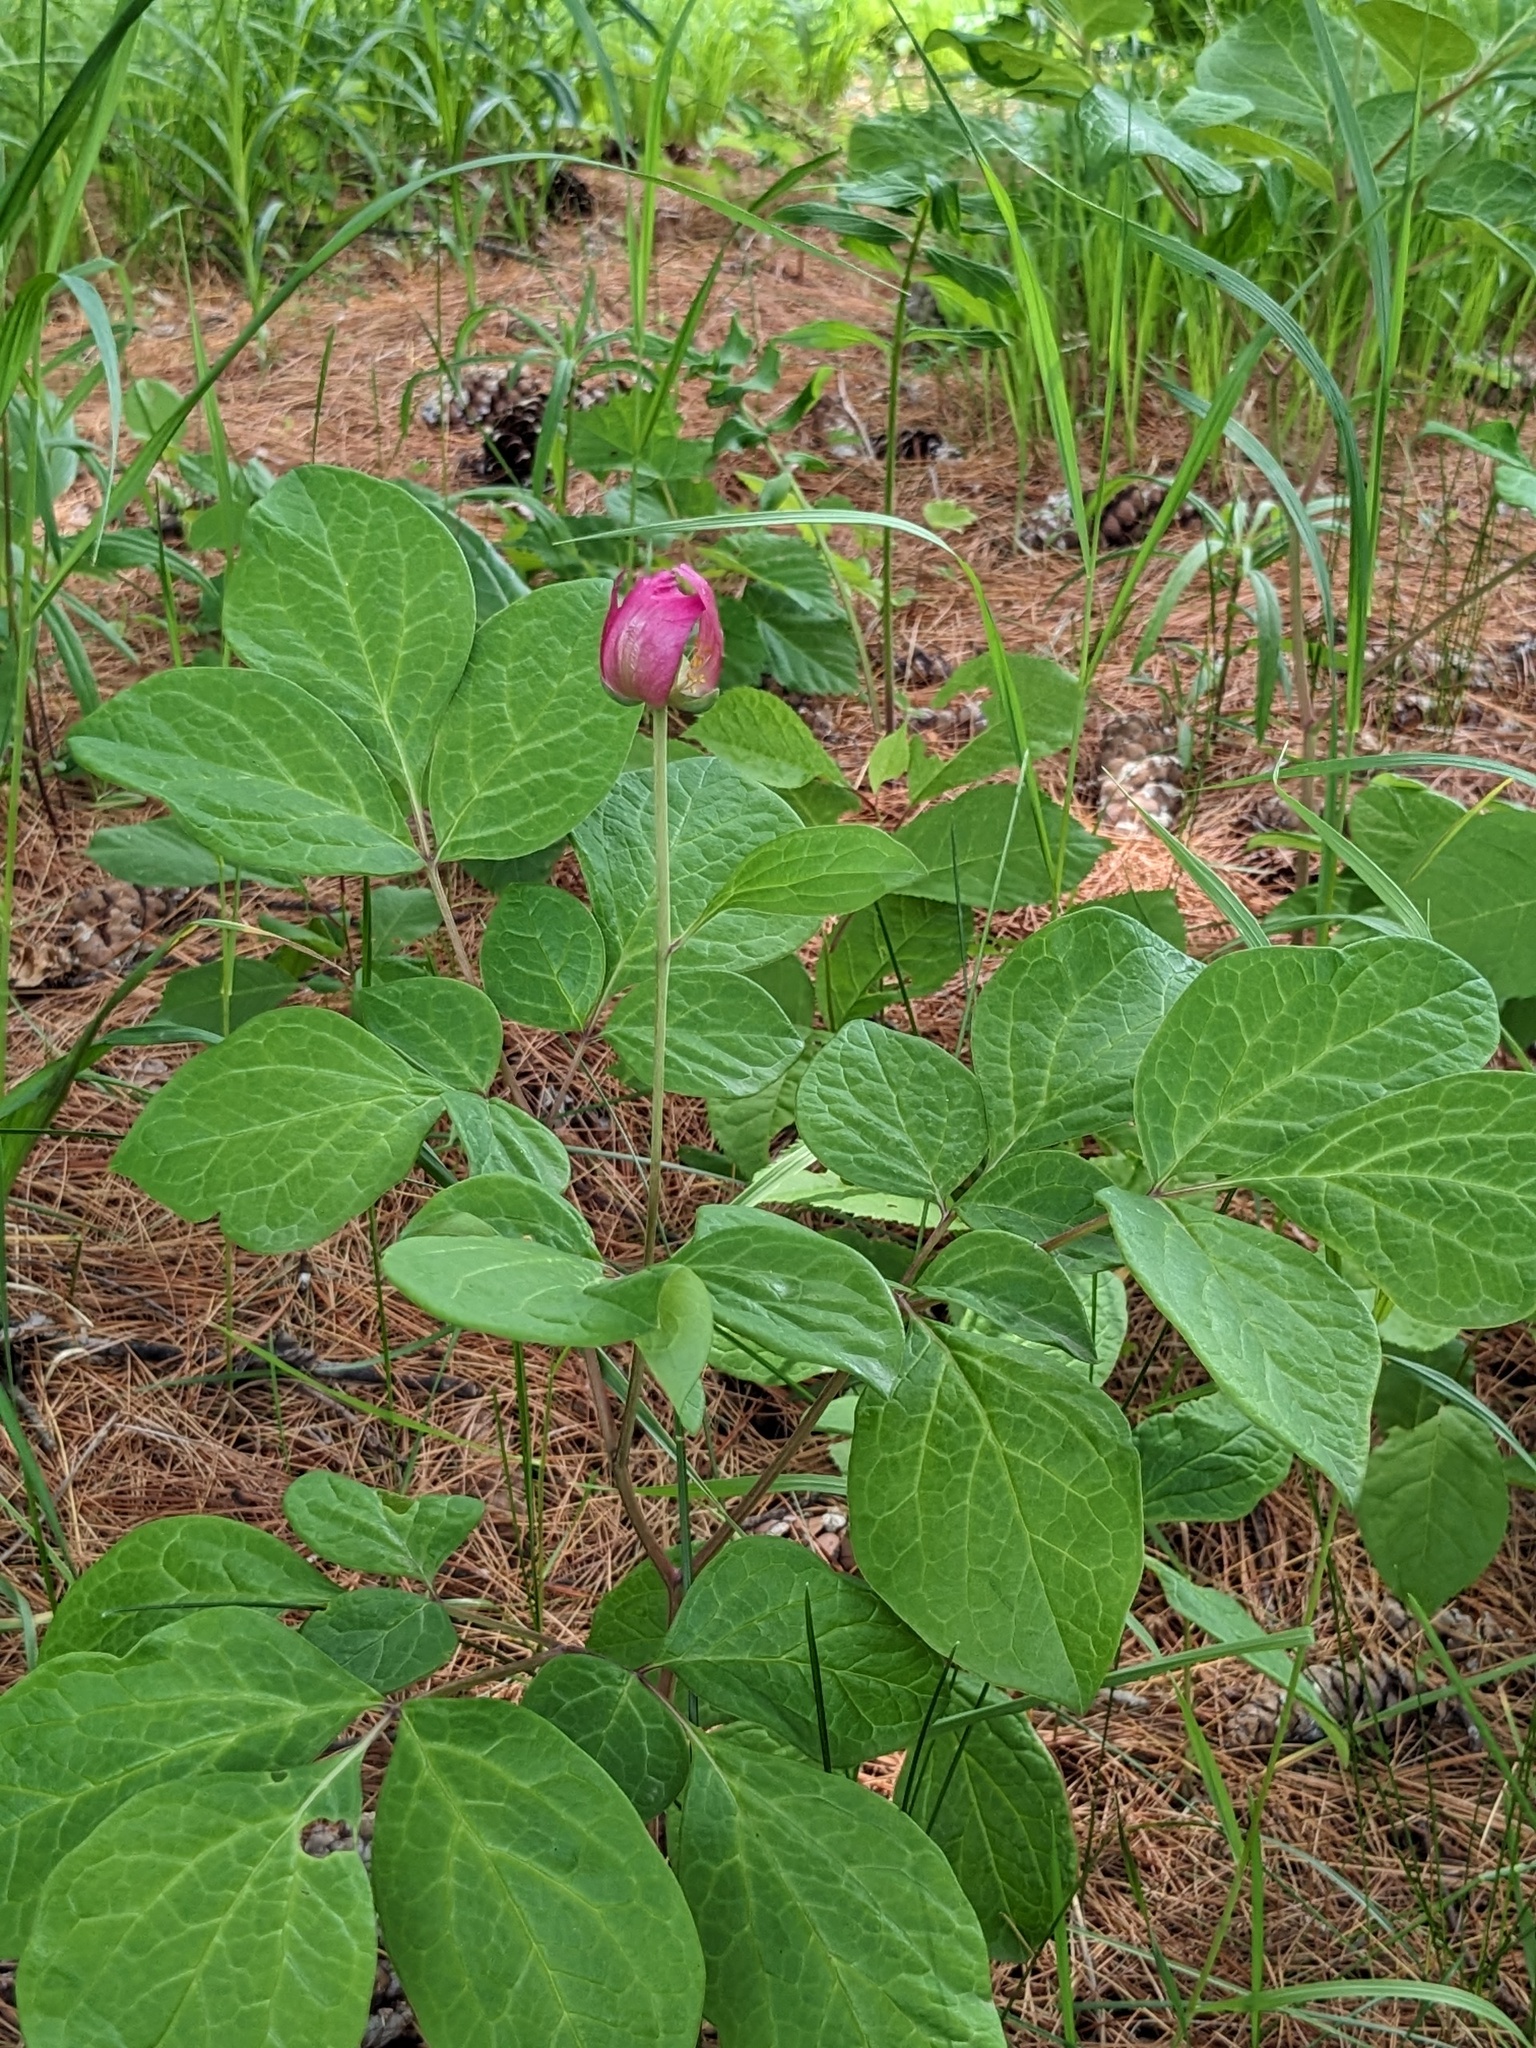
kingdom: Plantae
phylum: Tracheophyta
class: Magnoliopsida
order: Saxifragales
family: Paeoniaceae
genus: Paeonia
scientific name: Paeonia obovata
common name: Chinese peony
